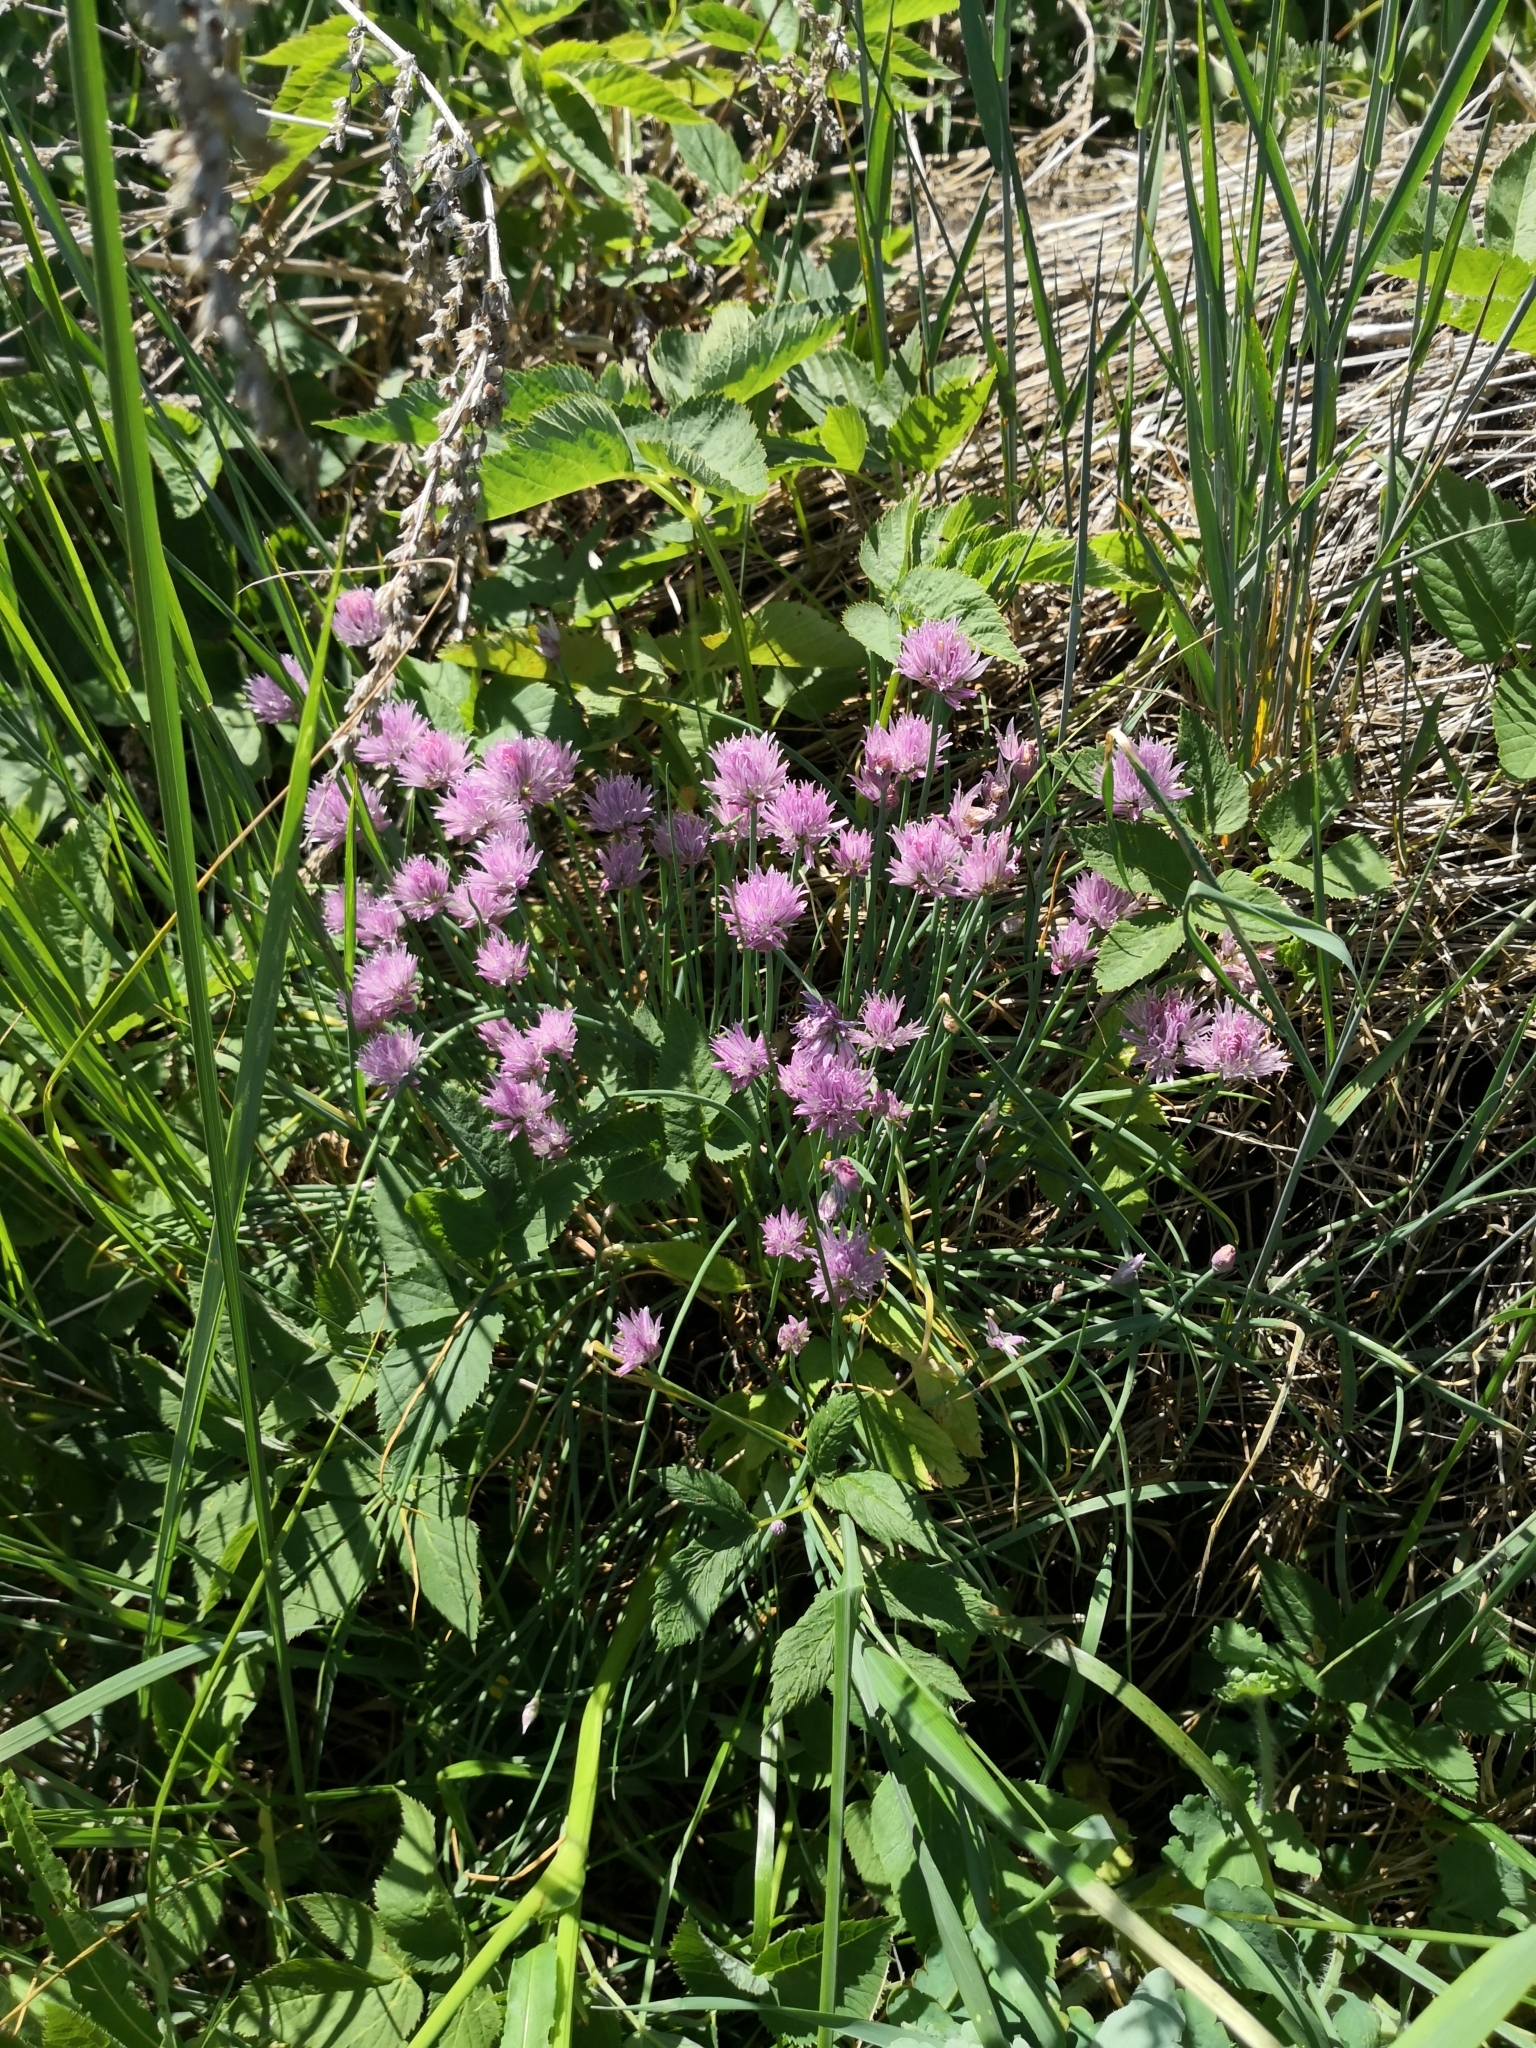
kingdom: Plantae
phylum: Tracheophyta
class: Liliopsida
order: Asparagales
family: Amaryllidaceae
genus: Allium
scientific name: Allium schoenoprasum
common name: Chives
